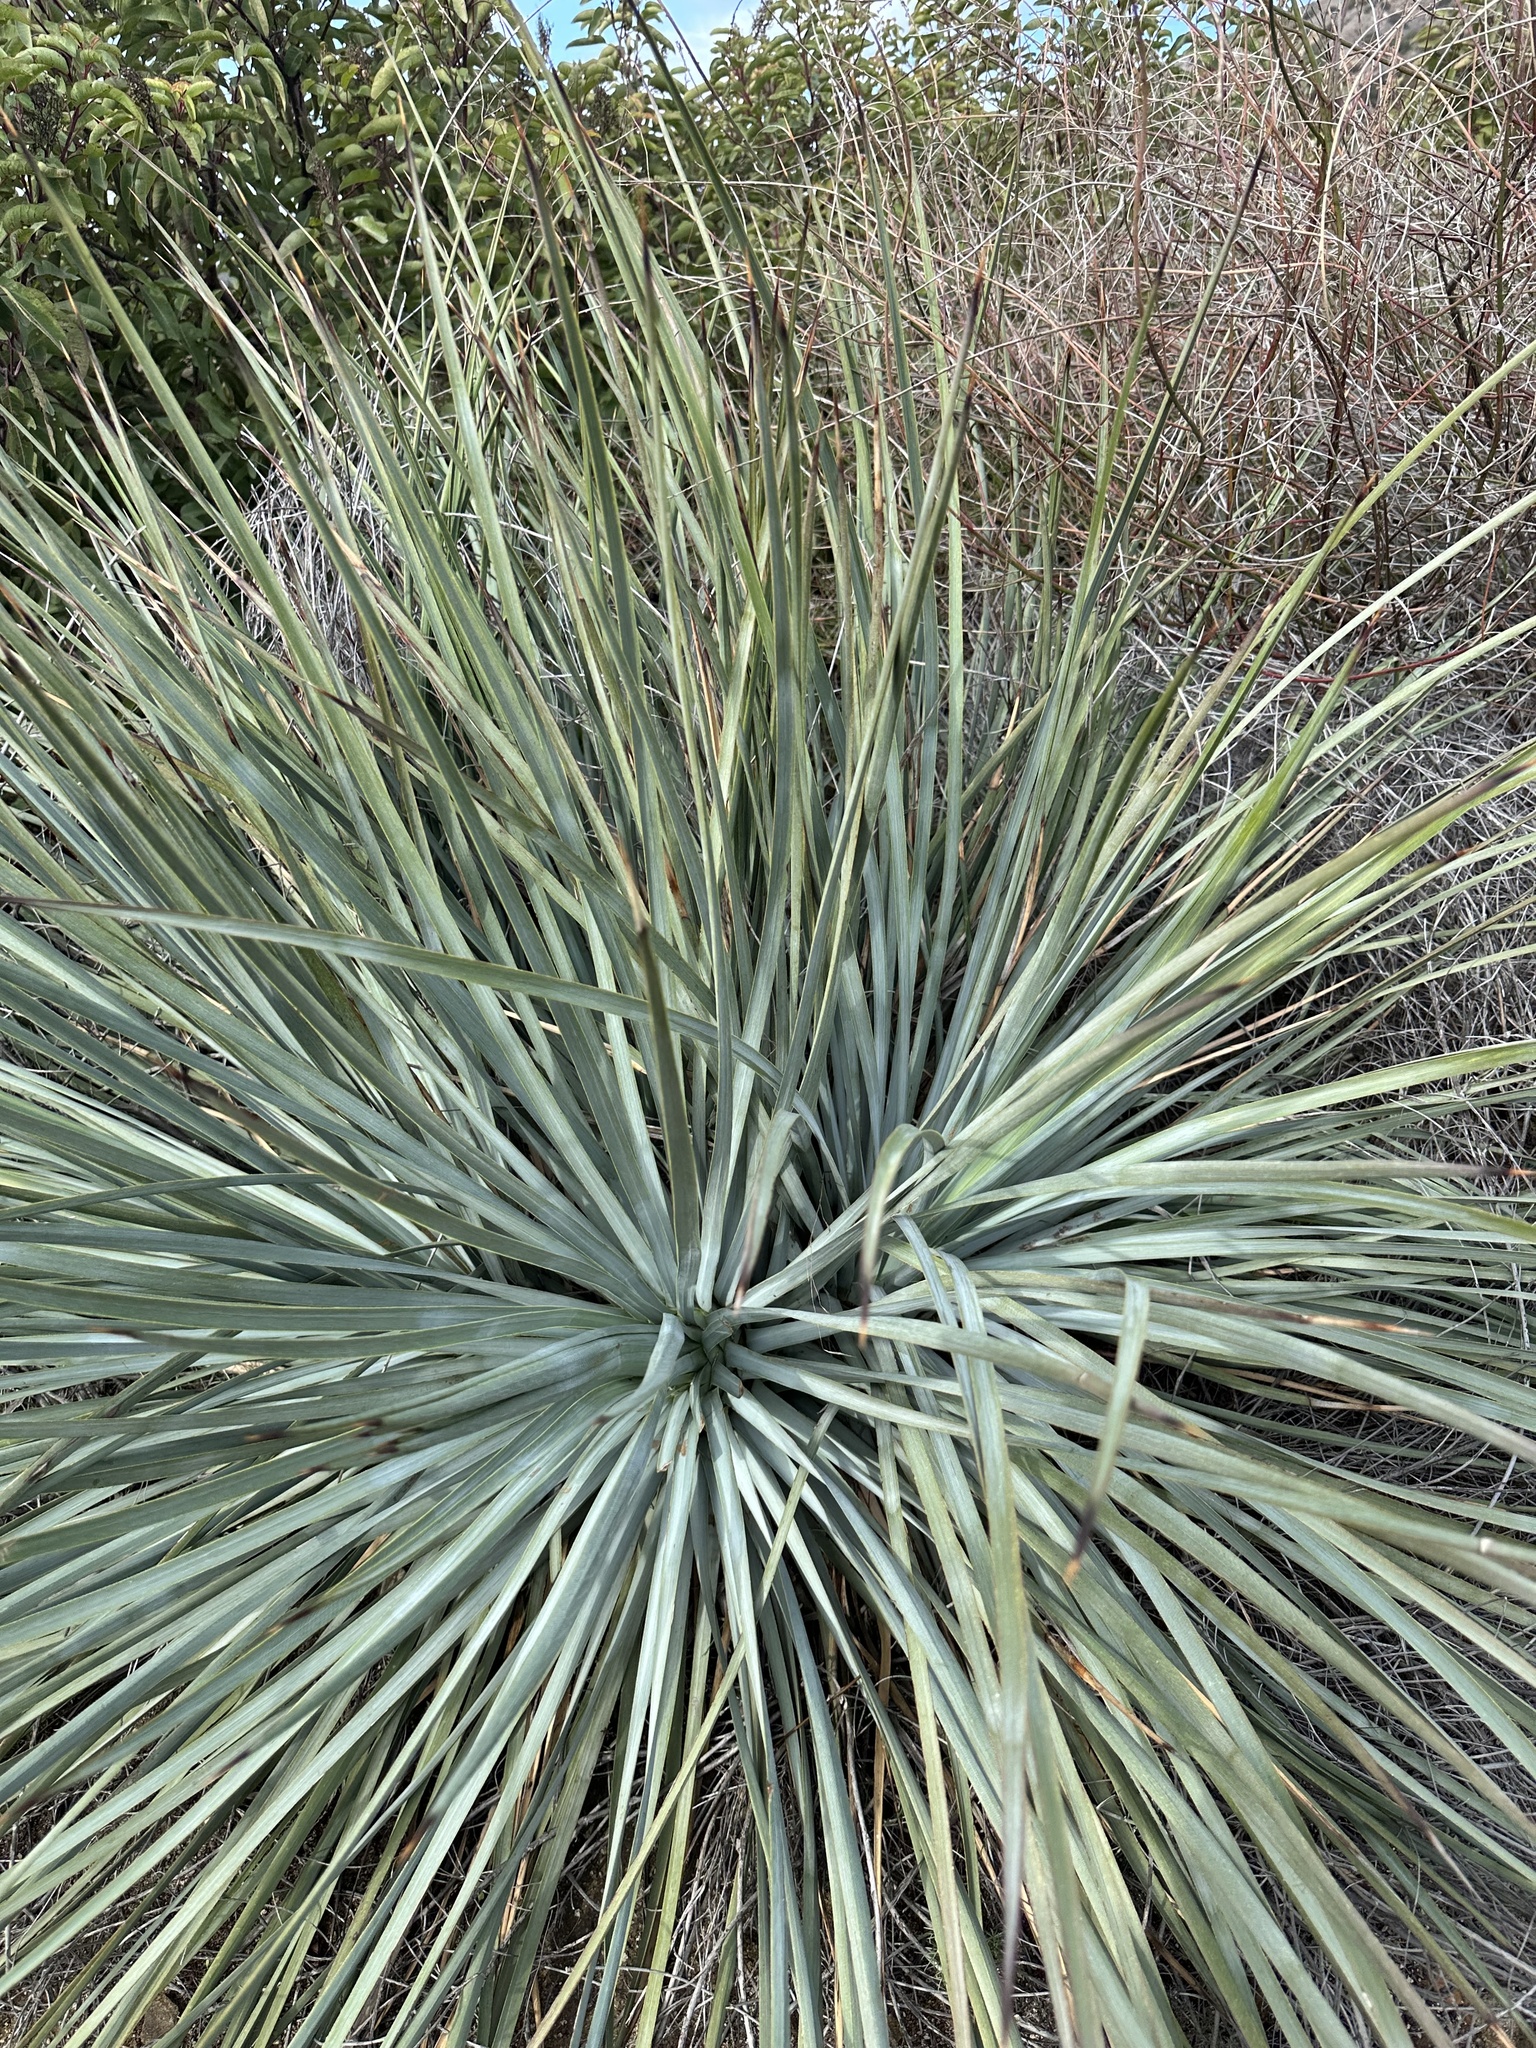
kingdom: Plantae
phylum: Tracheophyta
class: Liliopsida
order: Asparagales
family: Asparagaceae
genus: Hesperoyucca
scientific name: Hesperoyucca whipplei
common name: Our lord's-candle
